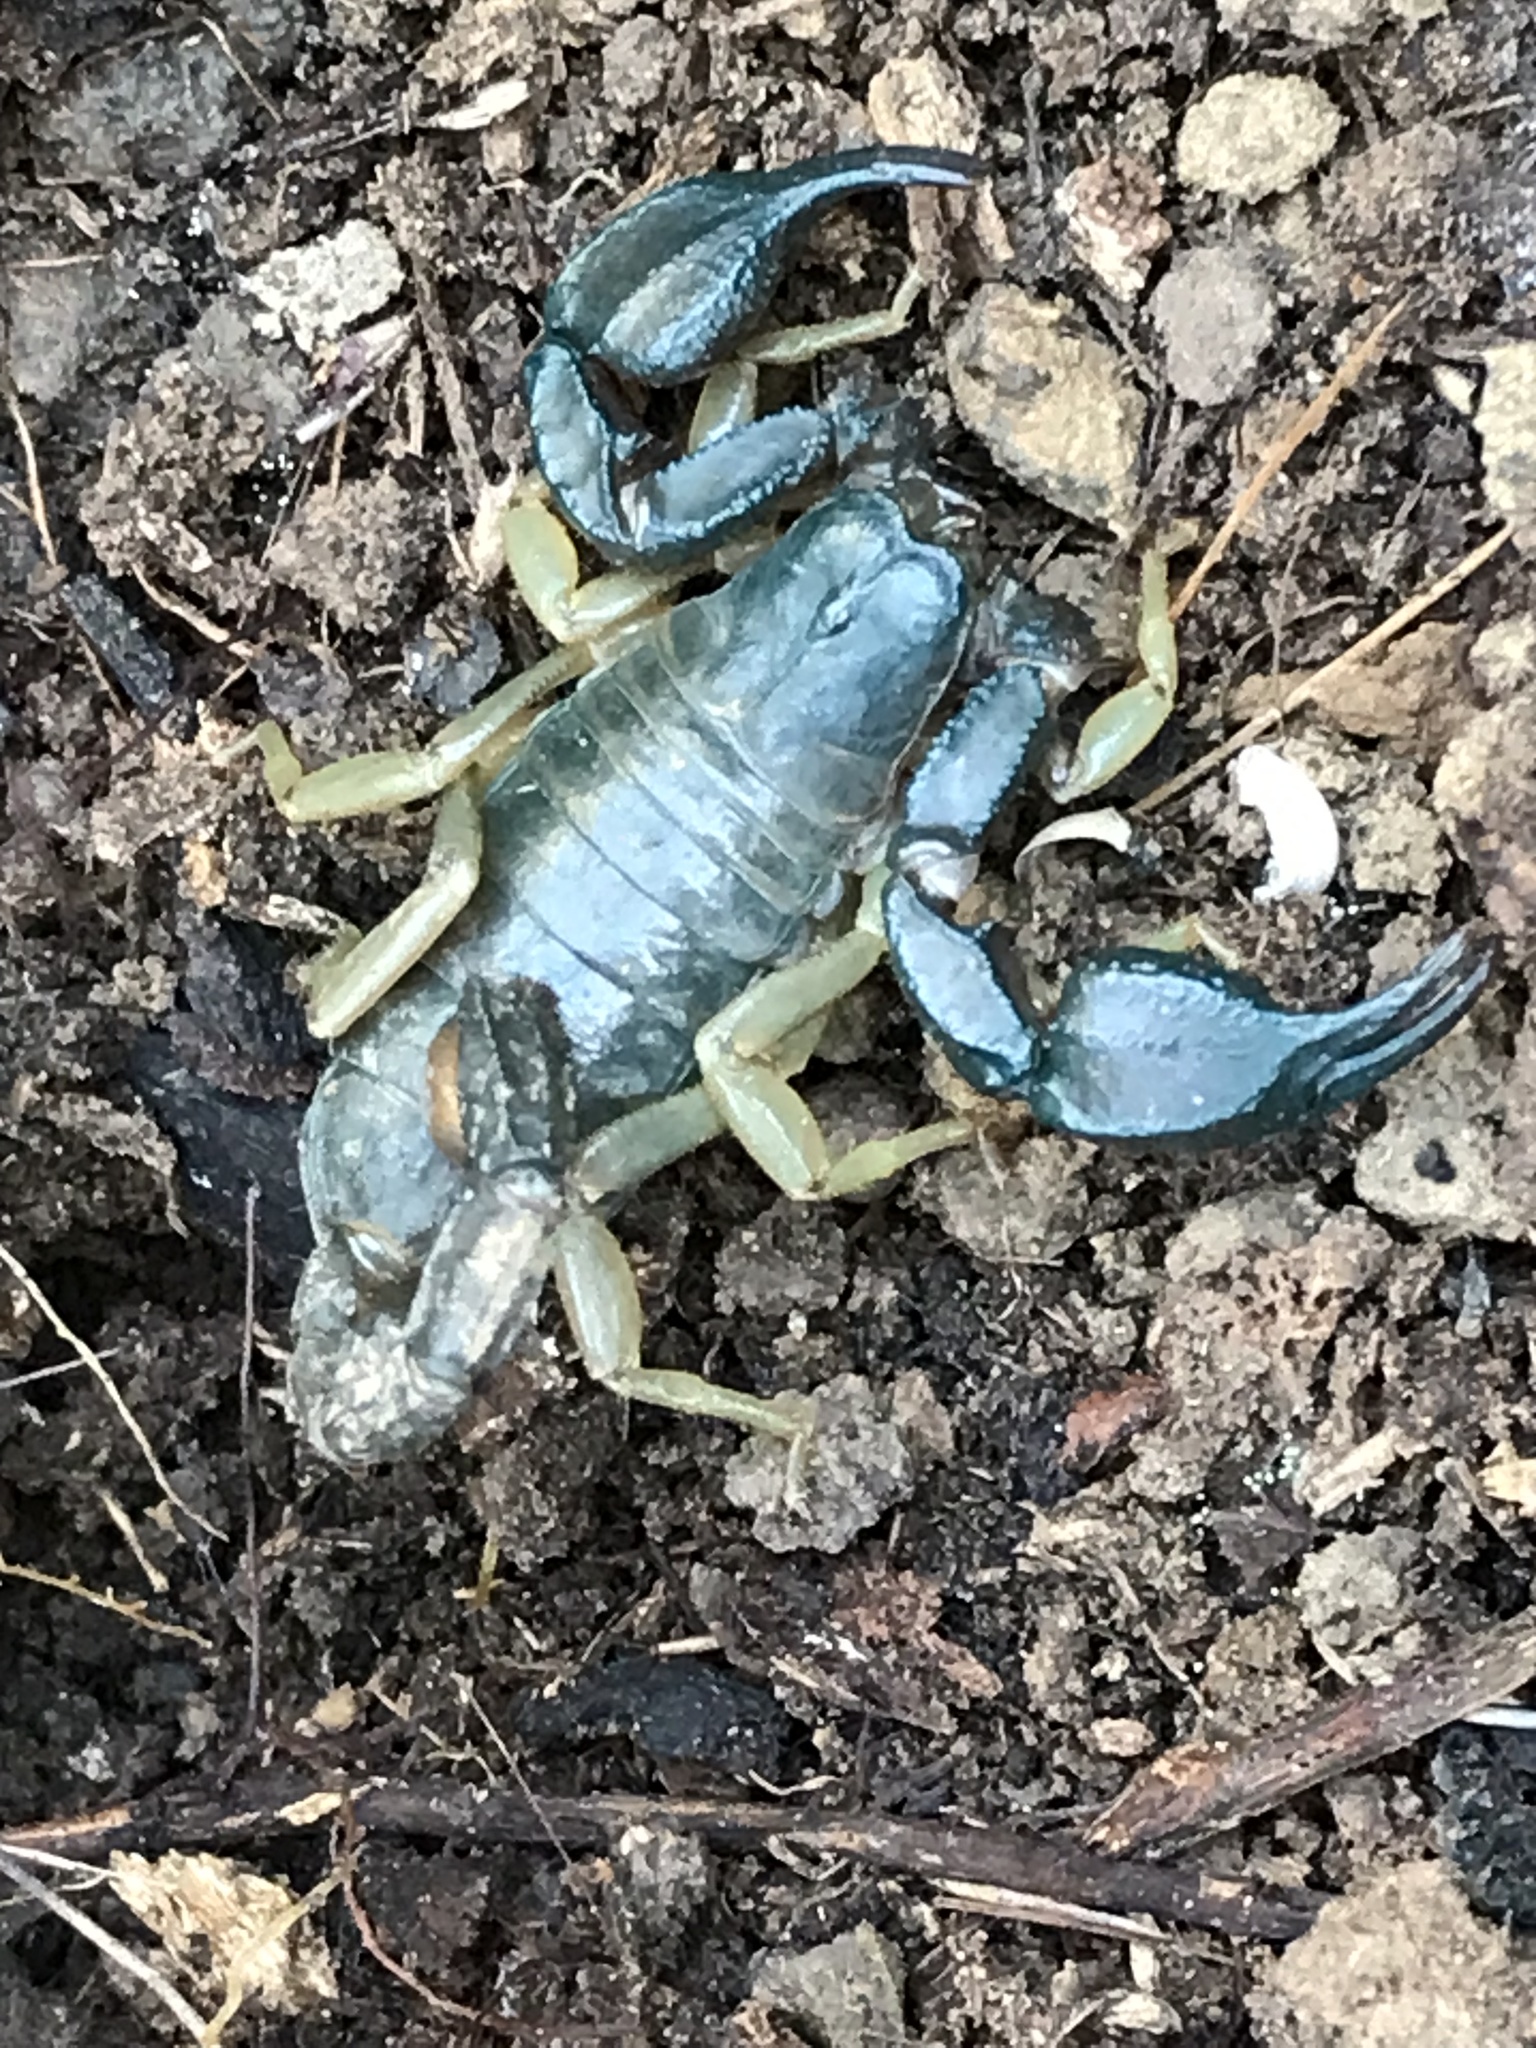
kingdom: Animalia
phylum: Arthropoda
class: Arachnida
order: Scorpiones
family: Chactidae
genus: Uroctonus
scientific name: Uroctonus mordax
